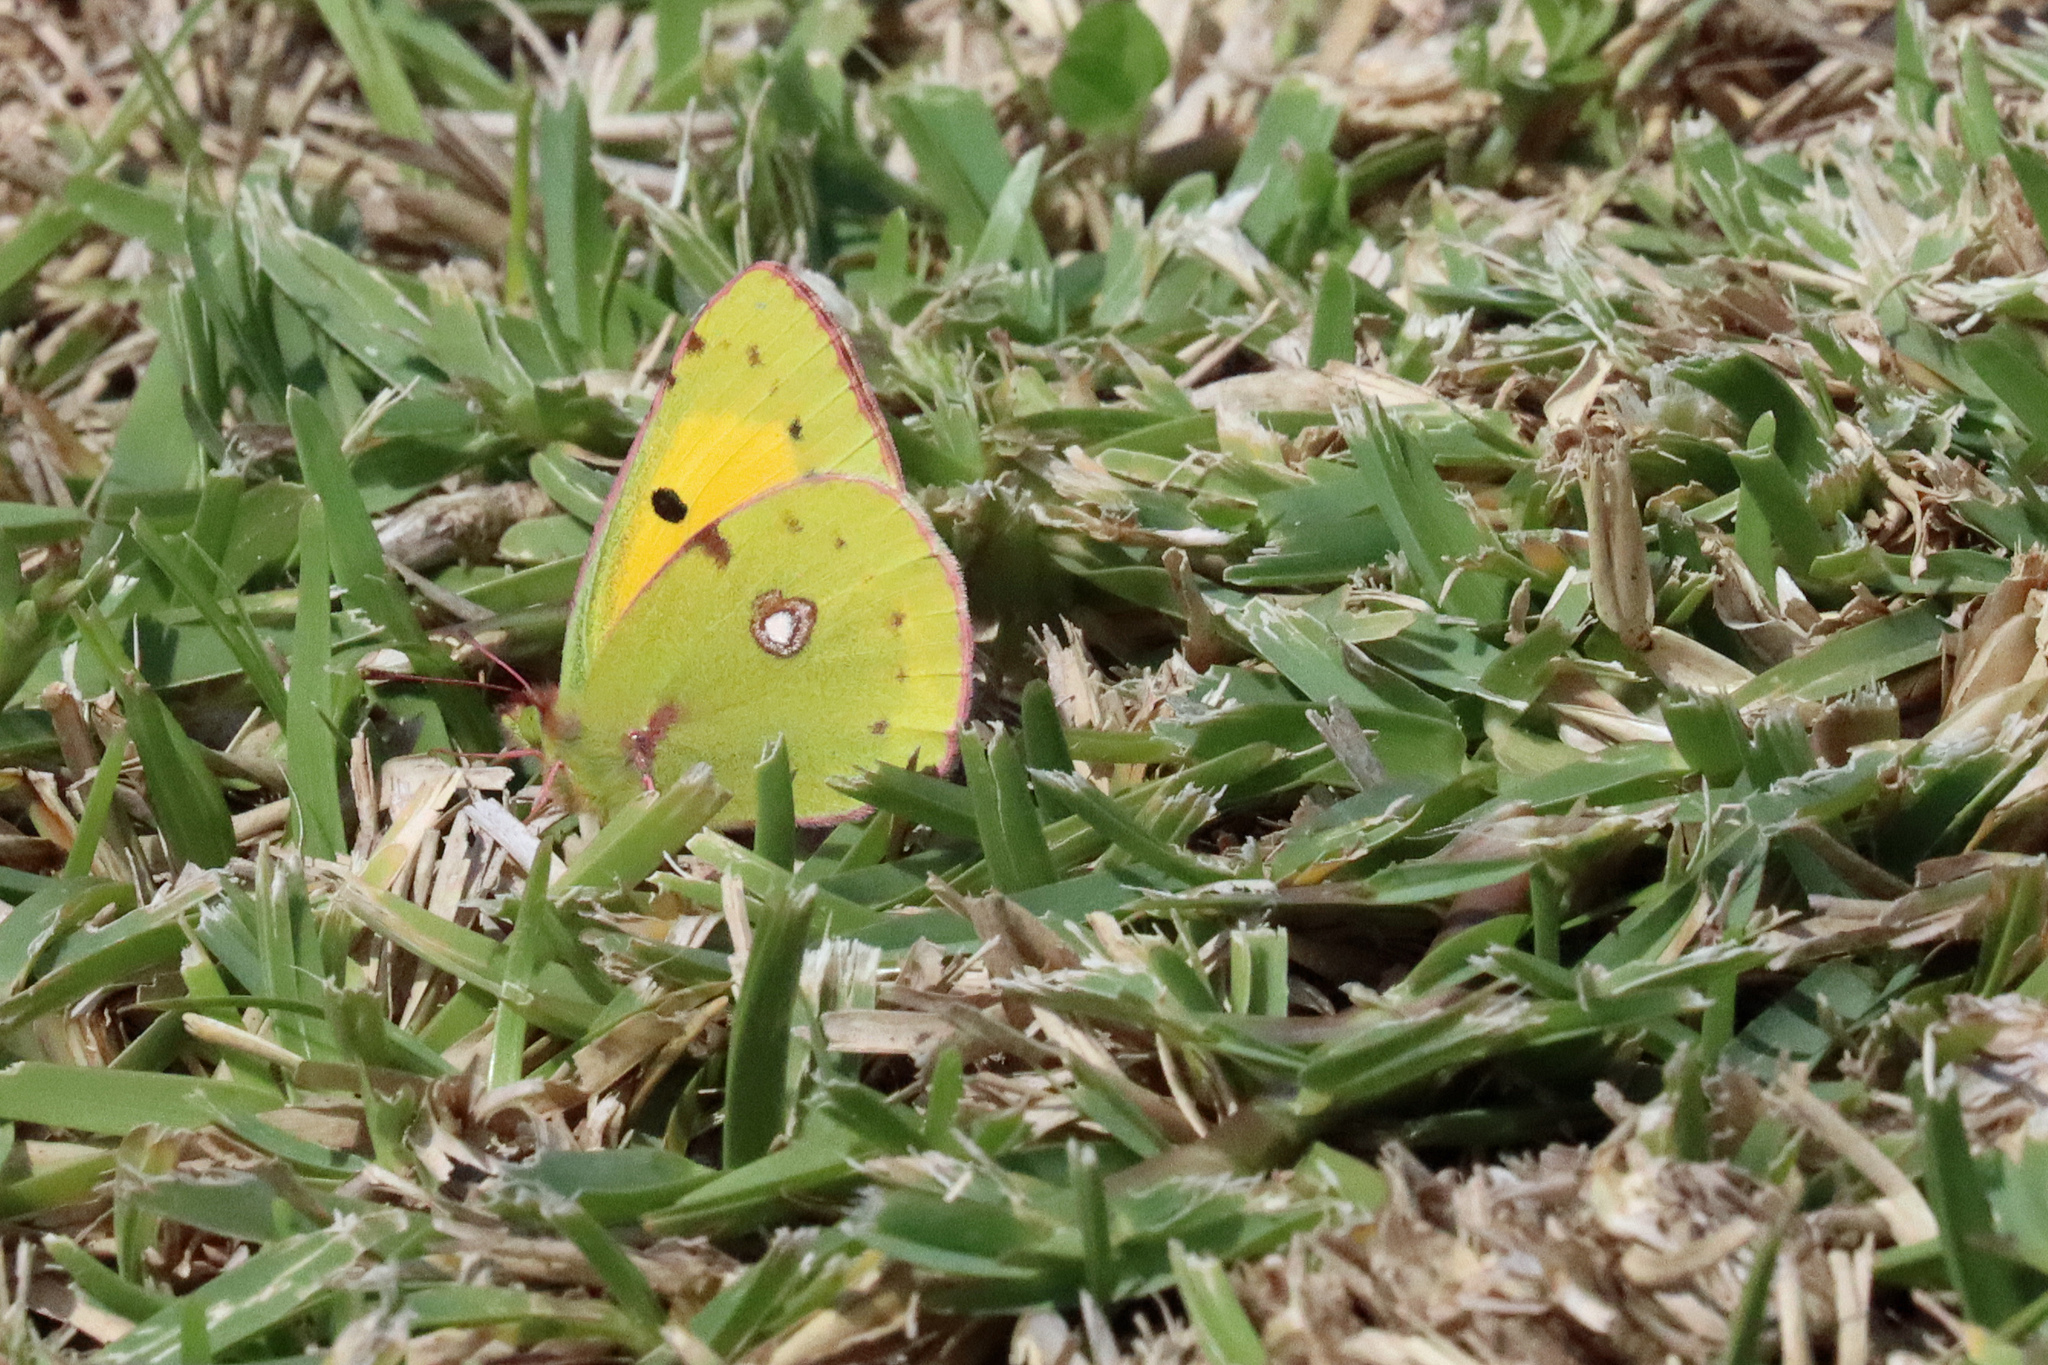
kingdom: Animalia
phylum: Arthropoda
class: Insecta
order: Lepidoptera
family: Pieridae
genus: Colias
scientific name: Colias croceus
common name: Clouded yellow
